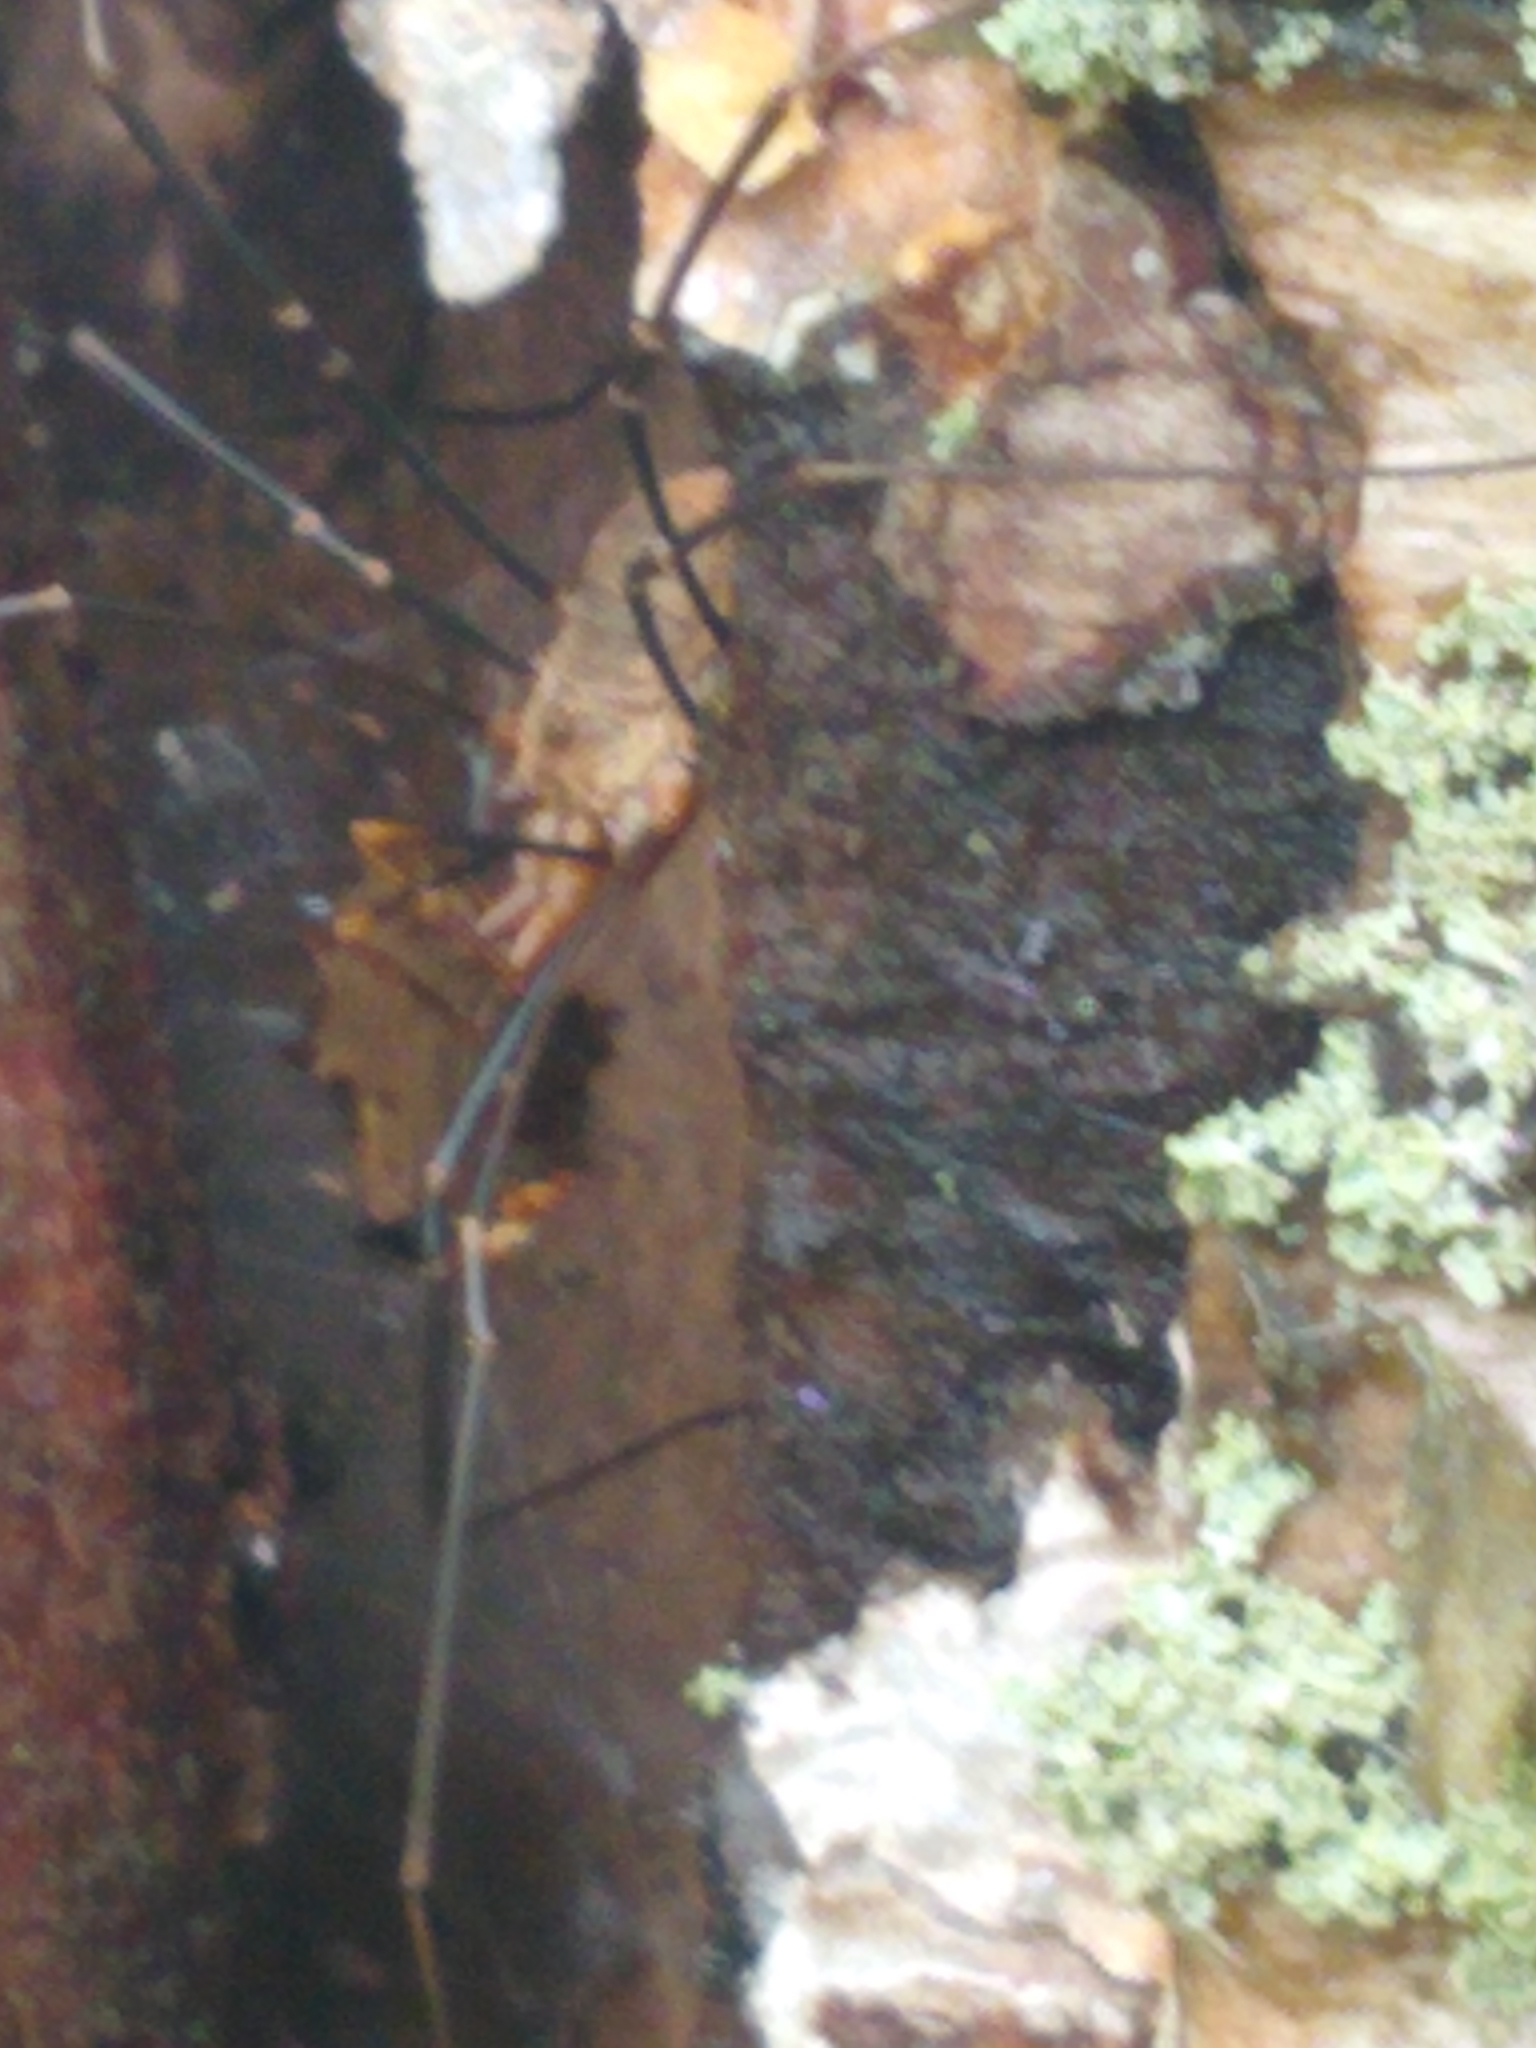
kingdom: Animalia
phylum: Arthropoda
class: Arachnida
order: Opiliones
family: Phalangiidae
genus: Phalangium
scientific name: Phalangium opilio
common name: Daddy longleg
